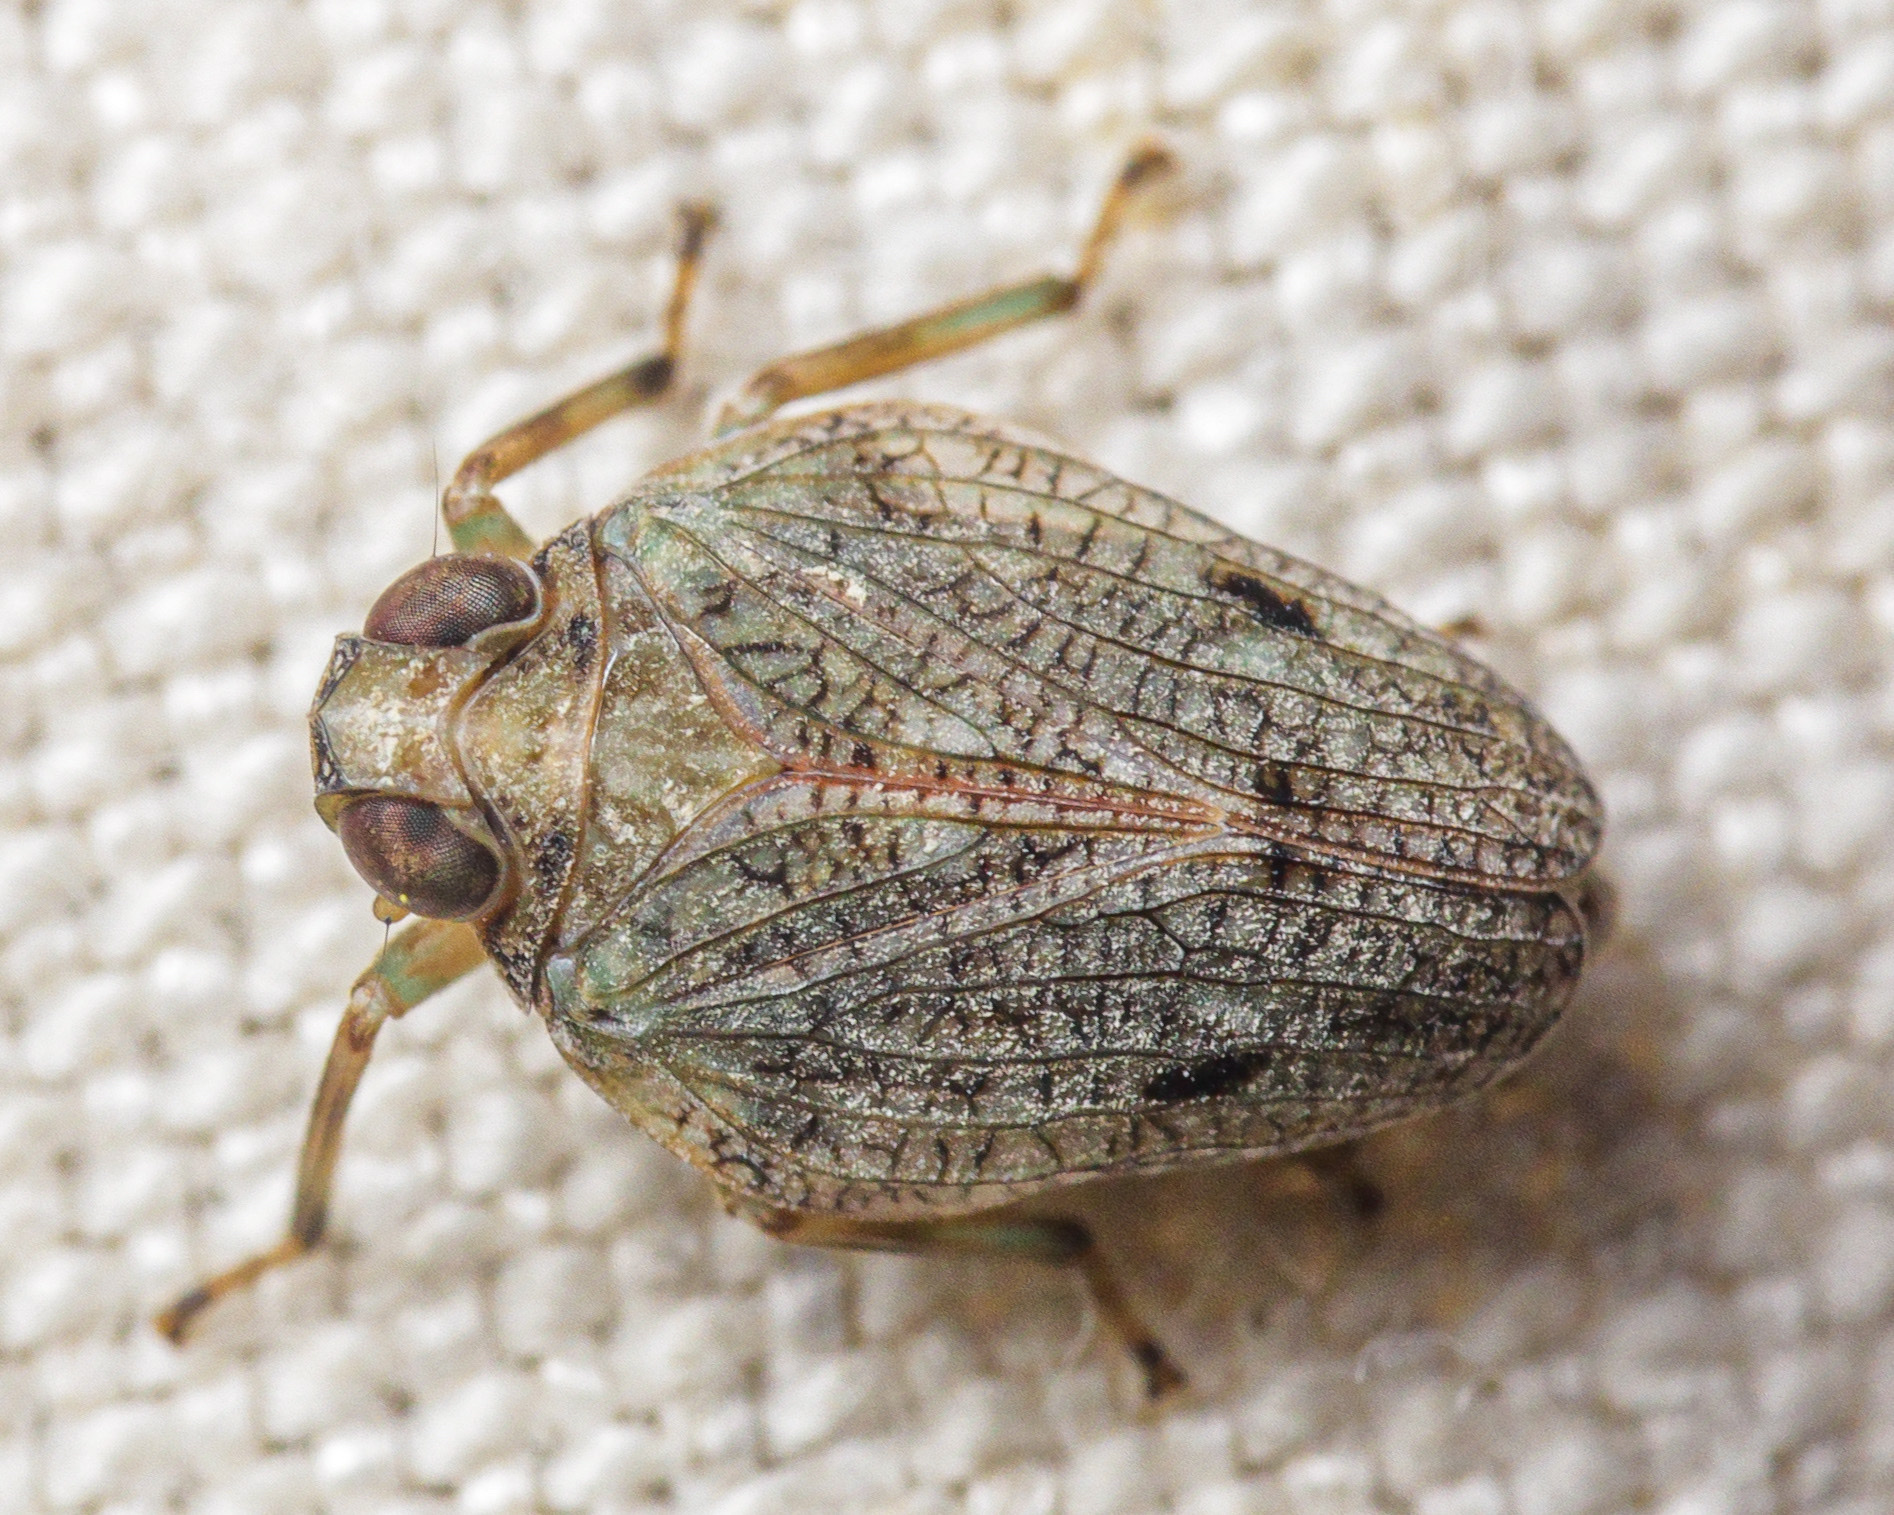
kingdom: Animalia
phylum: Arthropoda
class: Insecta
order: Hemiptera
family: Issidae
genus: Issus
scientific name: Issus coleoptratus
